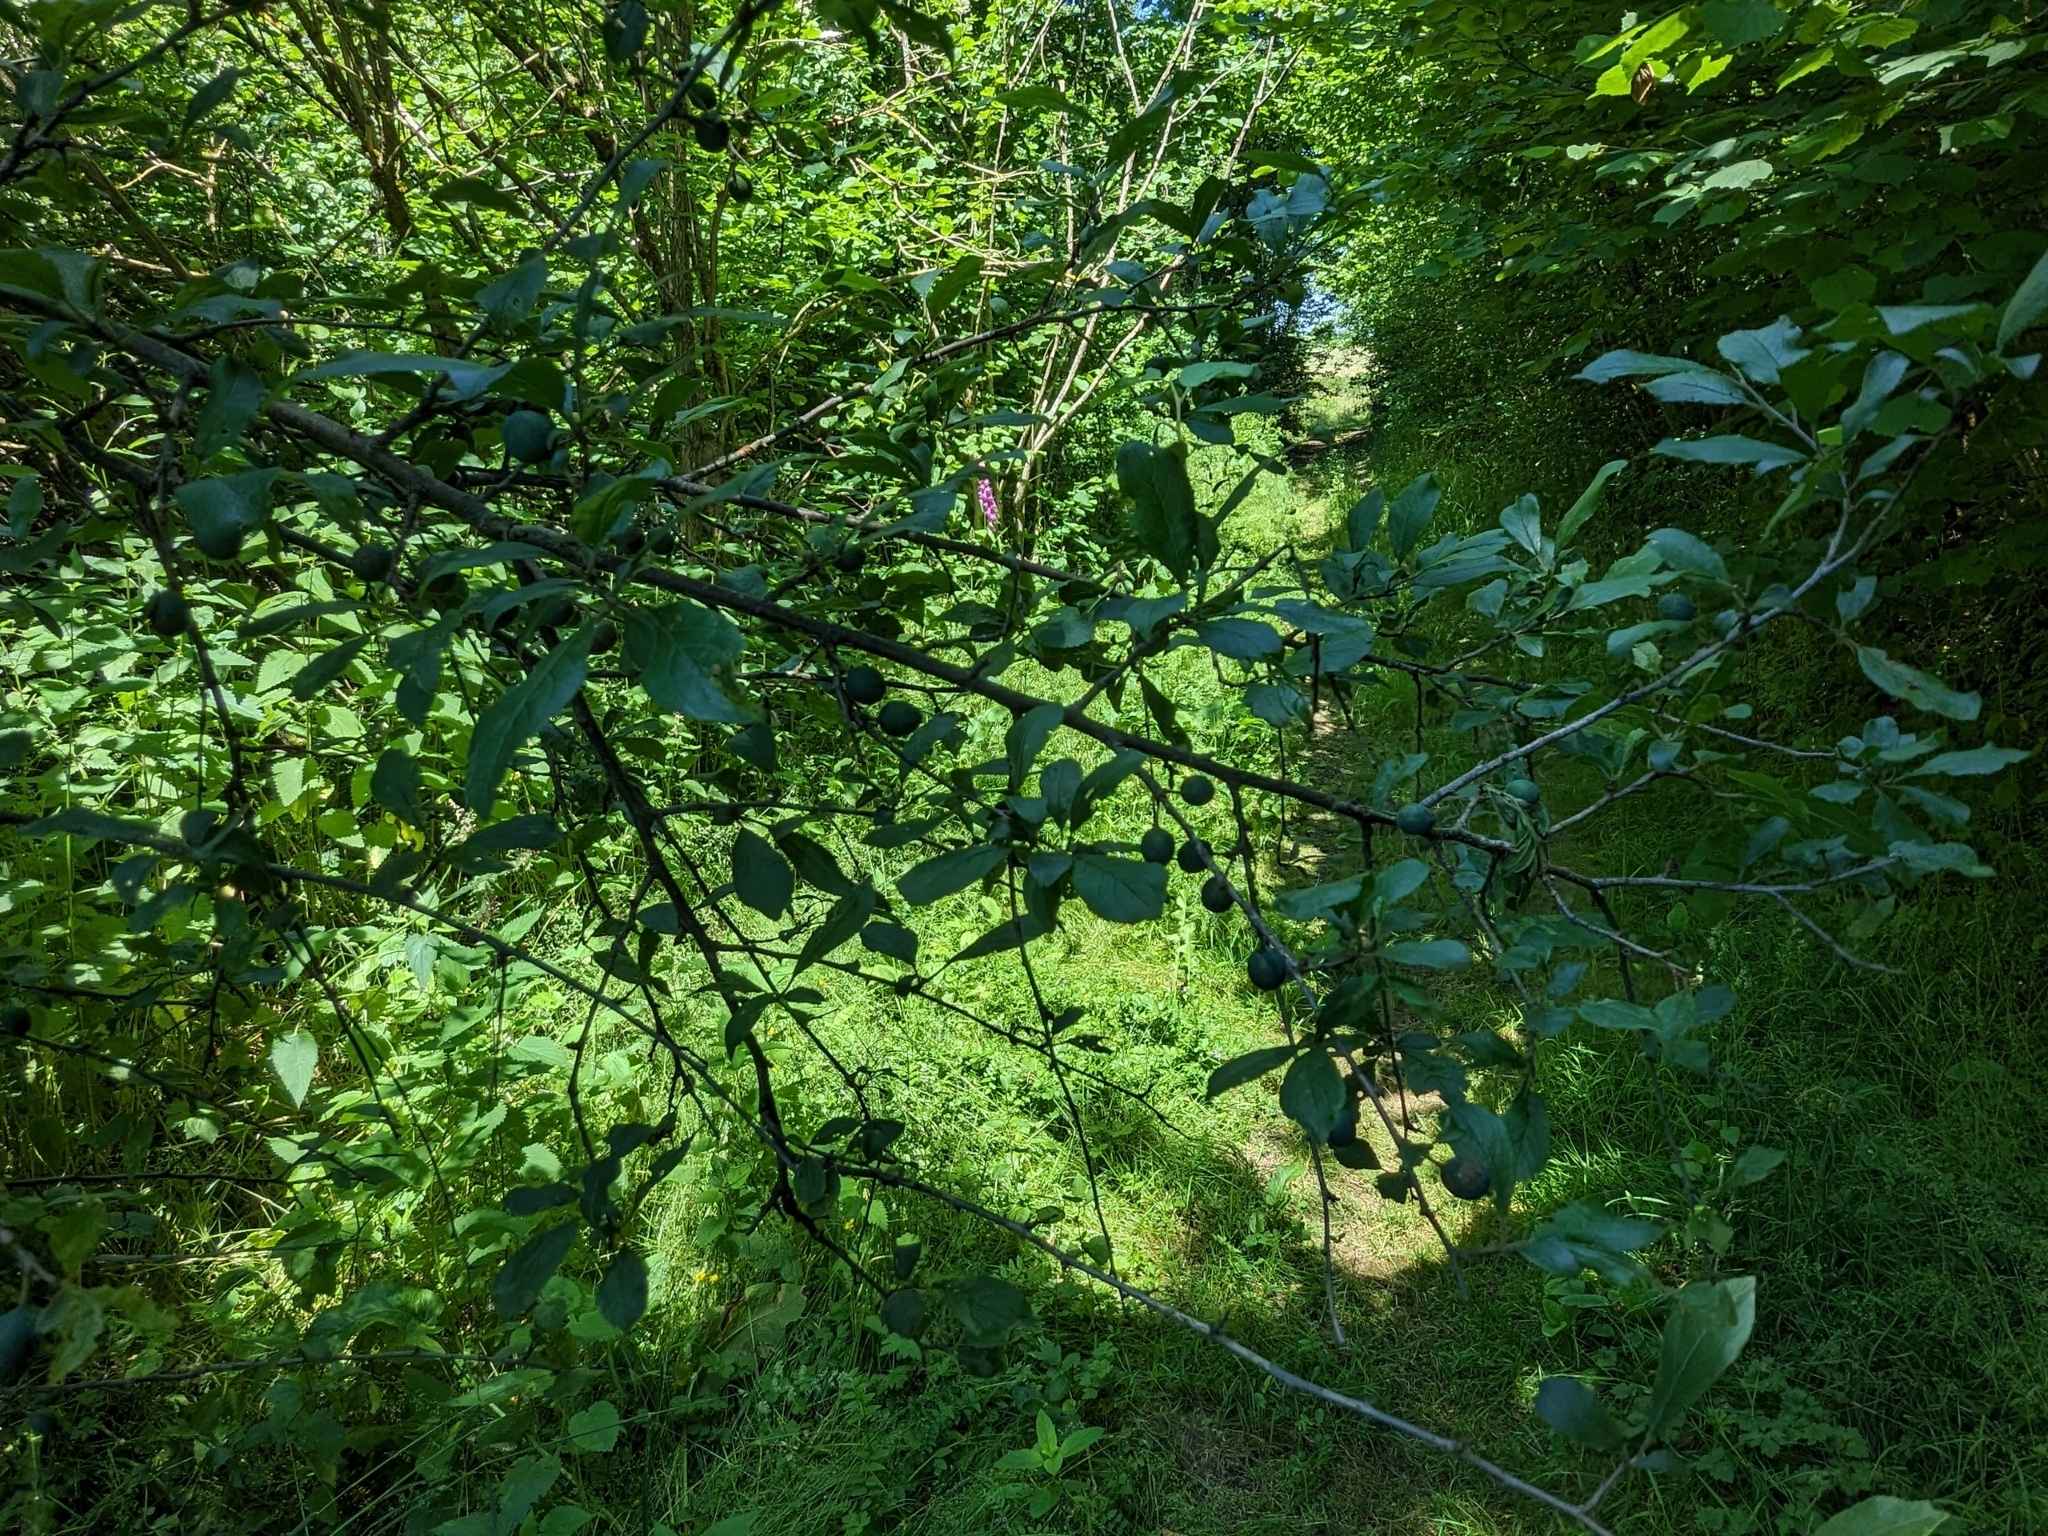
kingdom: Plantae
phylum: Tracheophyta
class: Magnoliopsida
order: Rosales
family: Rosaceae
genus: Prunus
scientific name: Prunus spinosa
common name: Blackthorn
